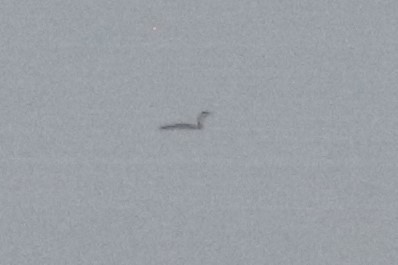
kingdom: Animalia
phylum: Chordata
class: Aves
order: Gaviiformes
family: Gaviidae
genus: Gavia
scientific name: Gavia stellata
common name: Red-throated loon
